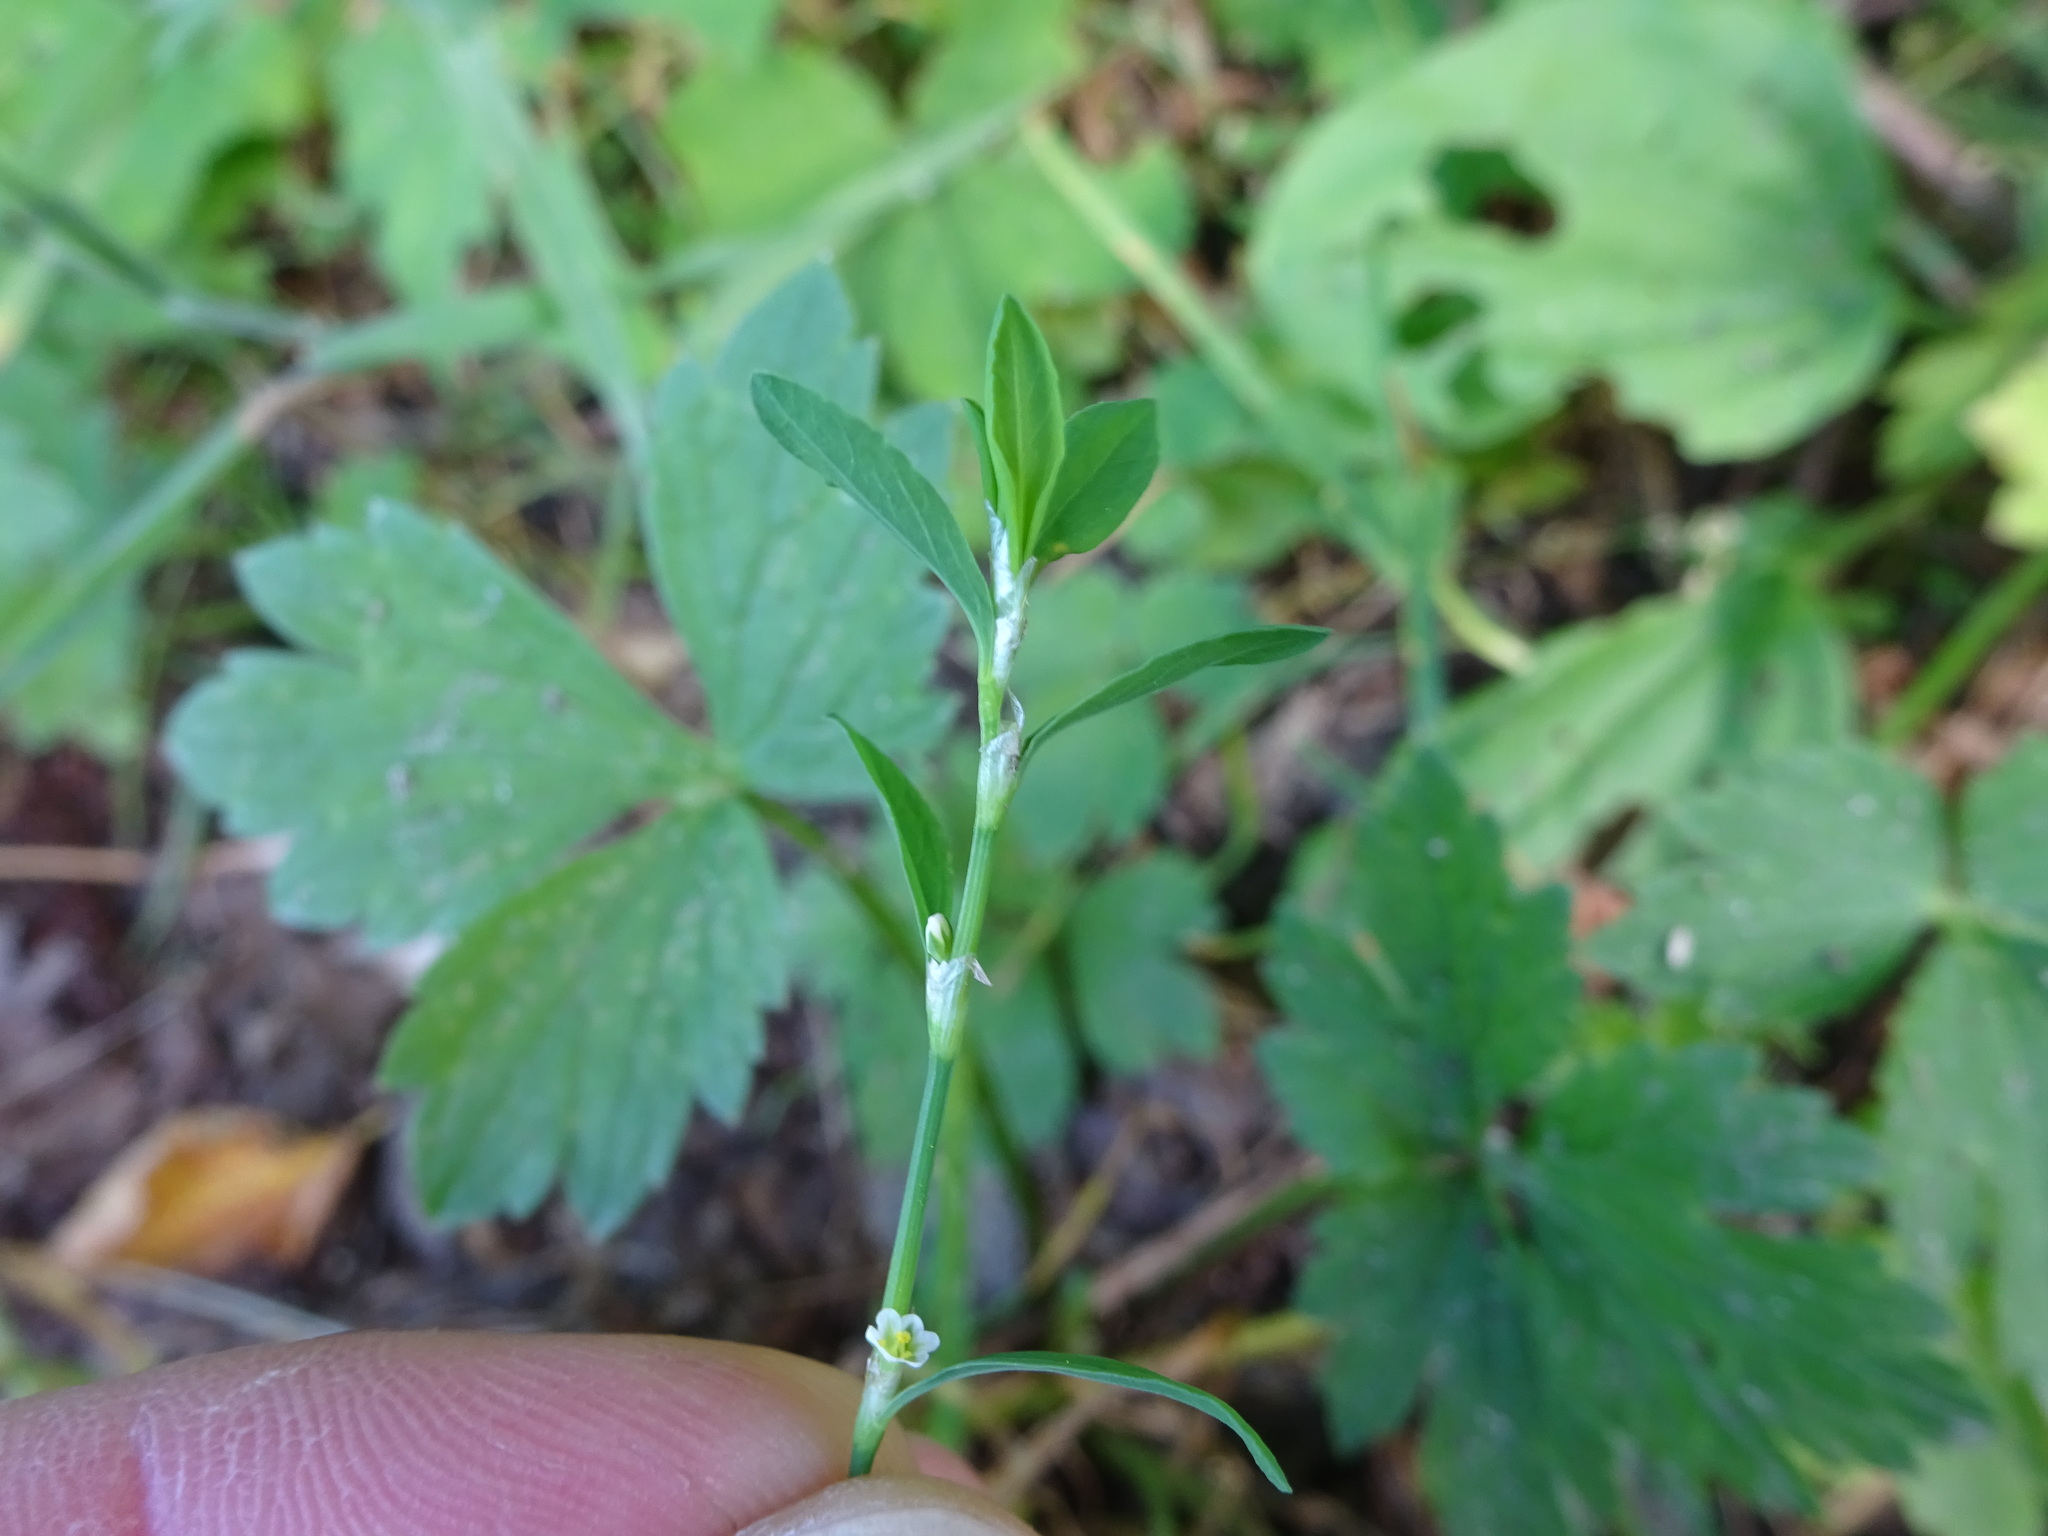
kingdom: Plantae
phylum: Tracheophyta
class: Magnoliopsida
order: Caryophyllales
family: Polygonaceae
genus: Polygonum
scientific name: Polygonum aviculare
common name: Prostrate knotweed
